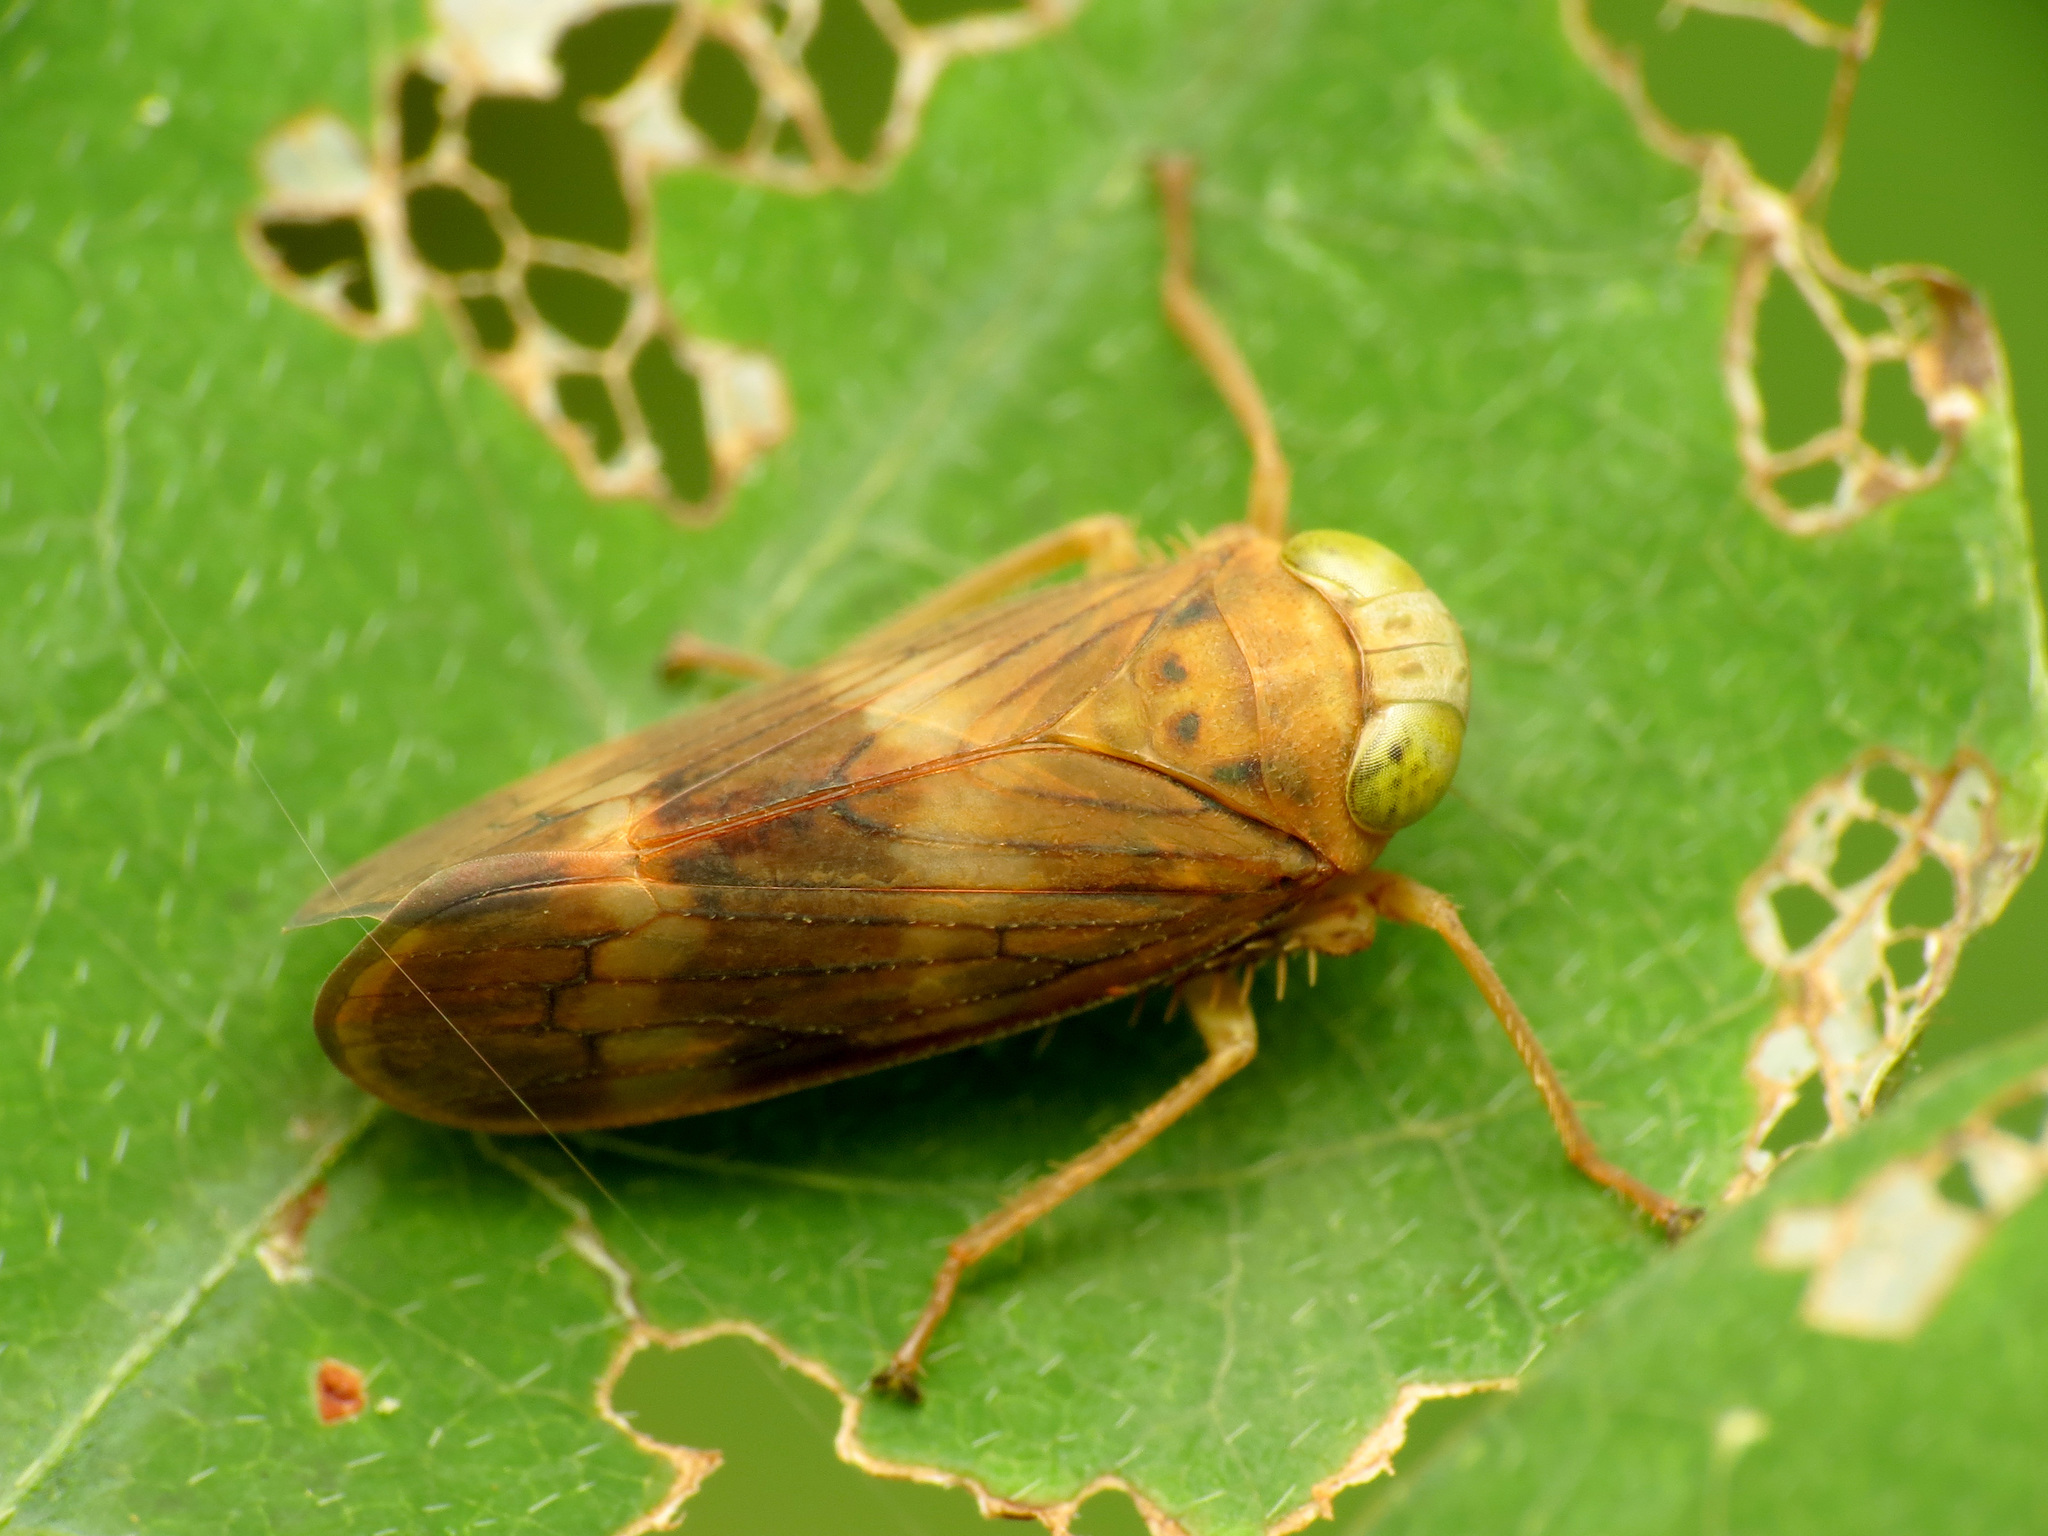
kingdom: Animalia
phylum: Arthropoda
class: Insecta
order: Hemiptera
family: Cicadellidae
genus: Jikradia
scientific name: Jikradia olitoria
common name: Coppery leafhopper
